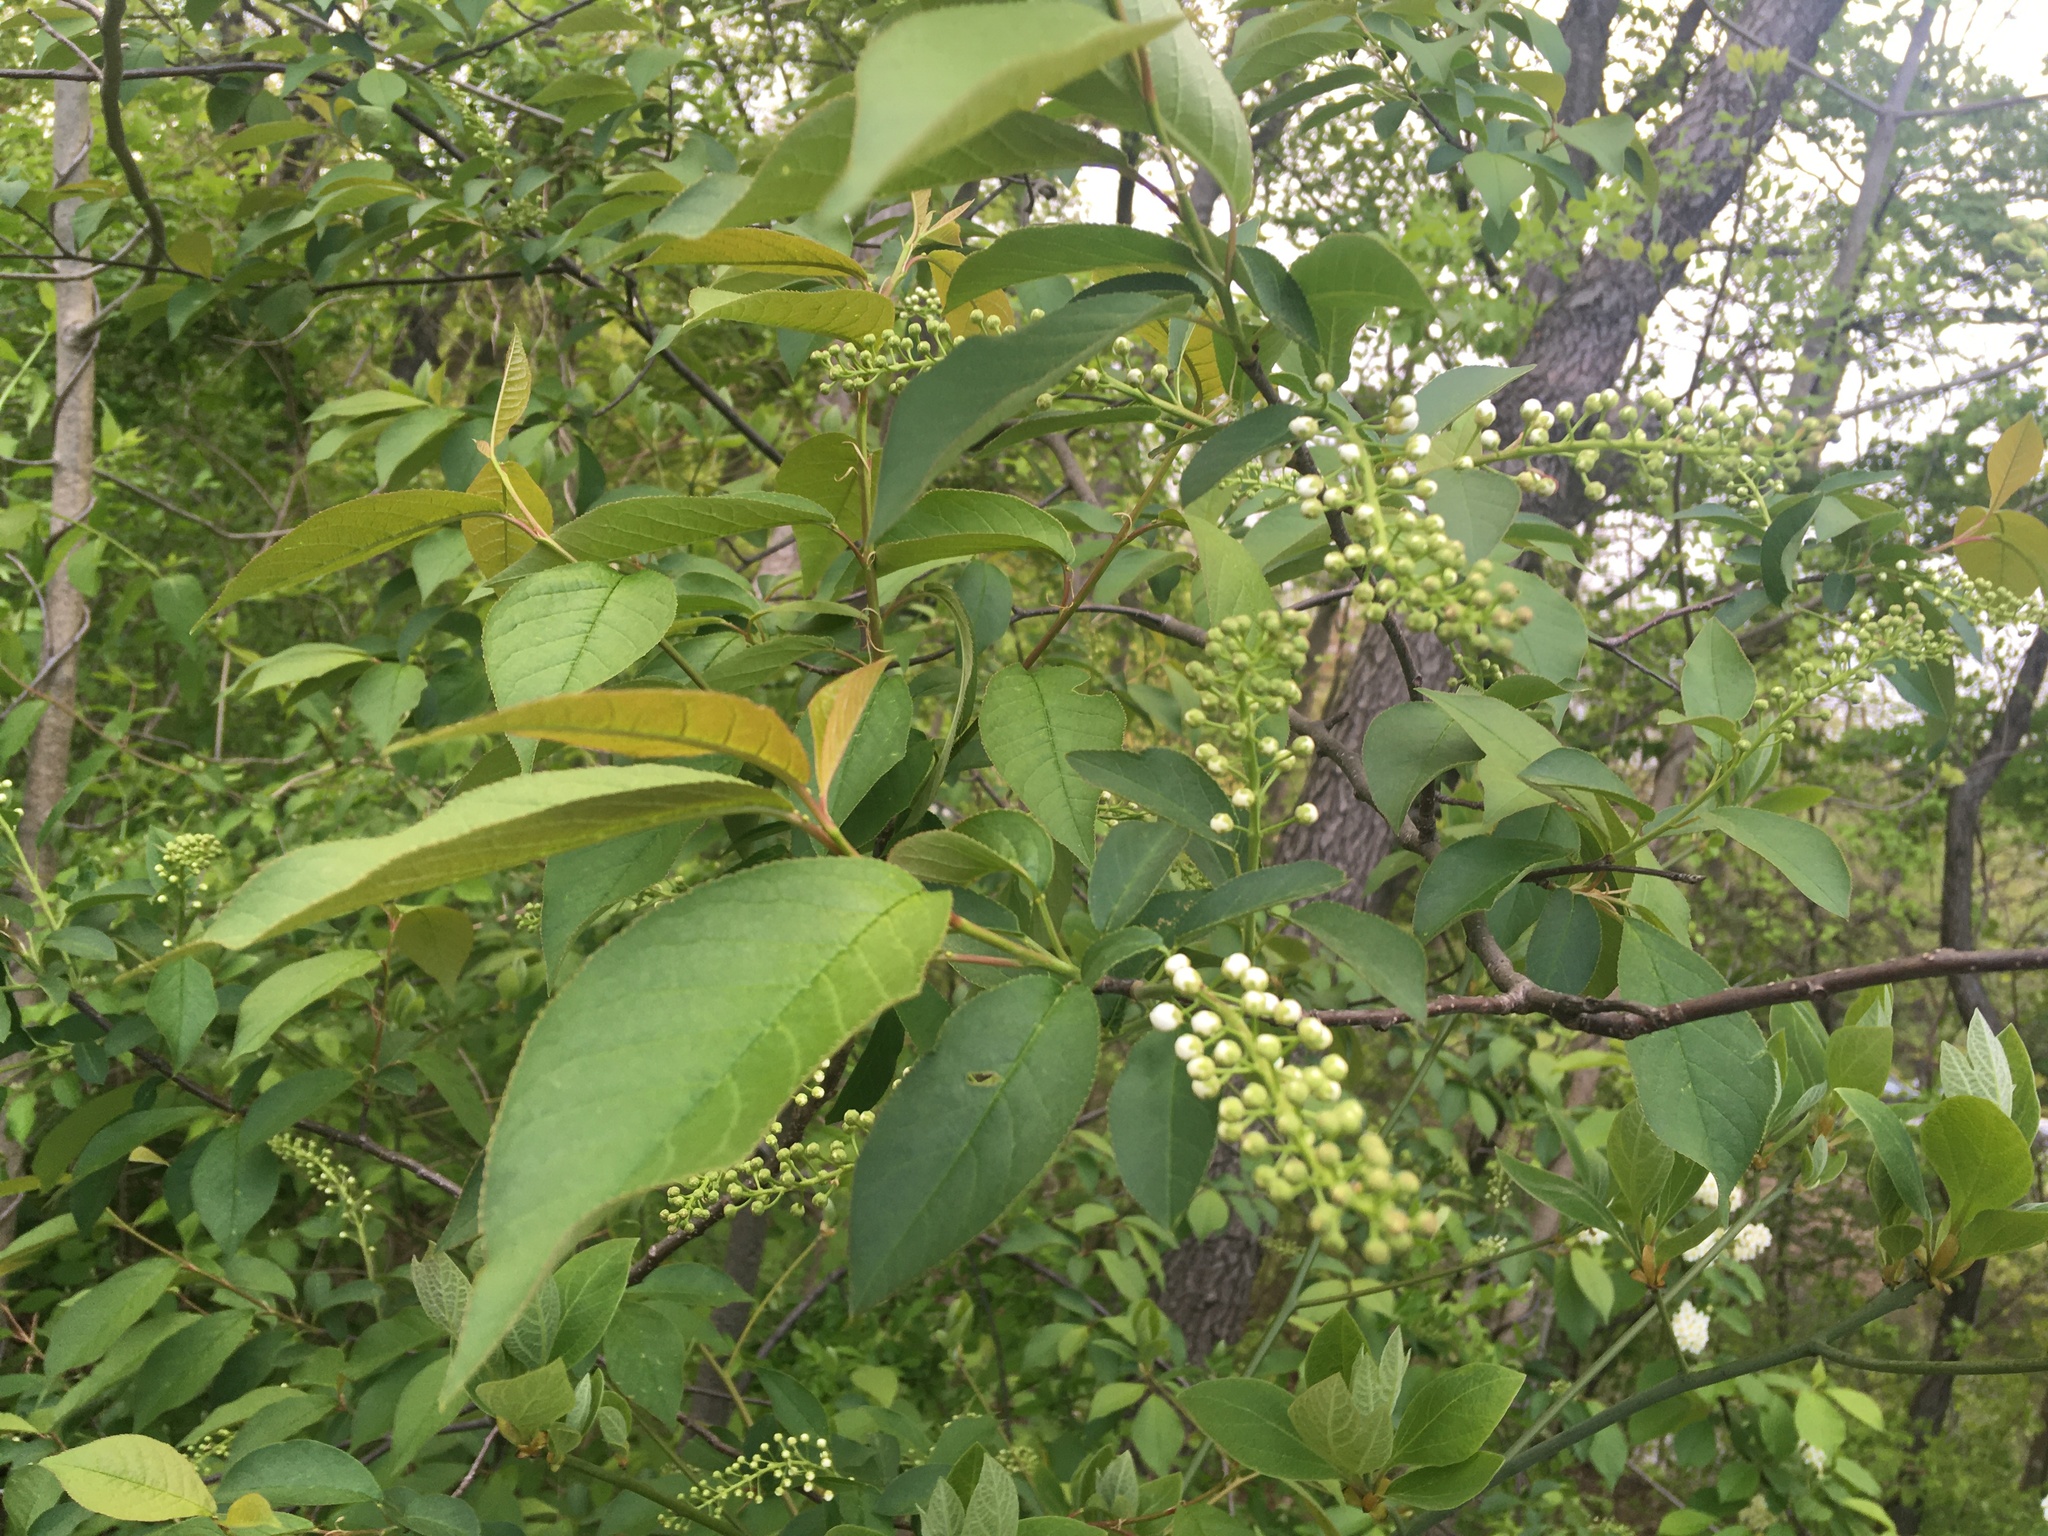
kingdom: Plantae
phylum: Tracheophyta
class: Magnoliopsida
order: Rosales
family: Rosaceae
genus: Prunus
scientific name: Prunus virginiana
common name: Chokecherry
